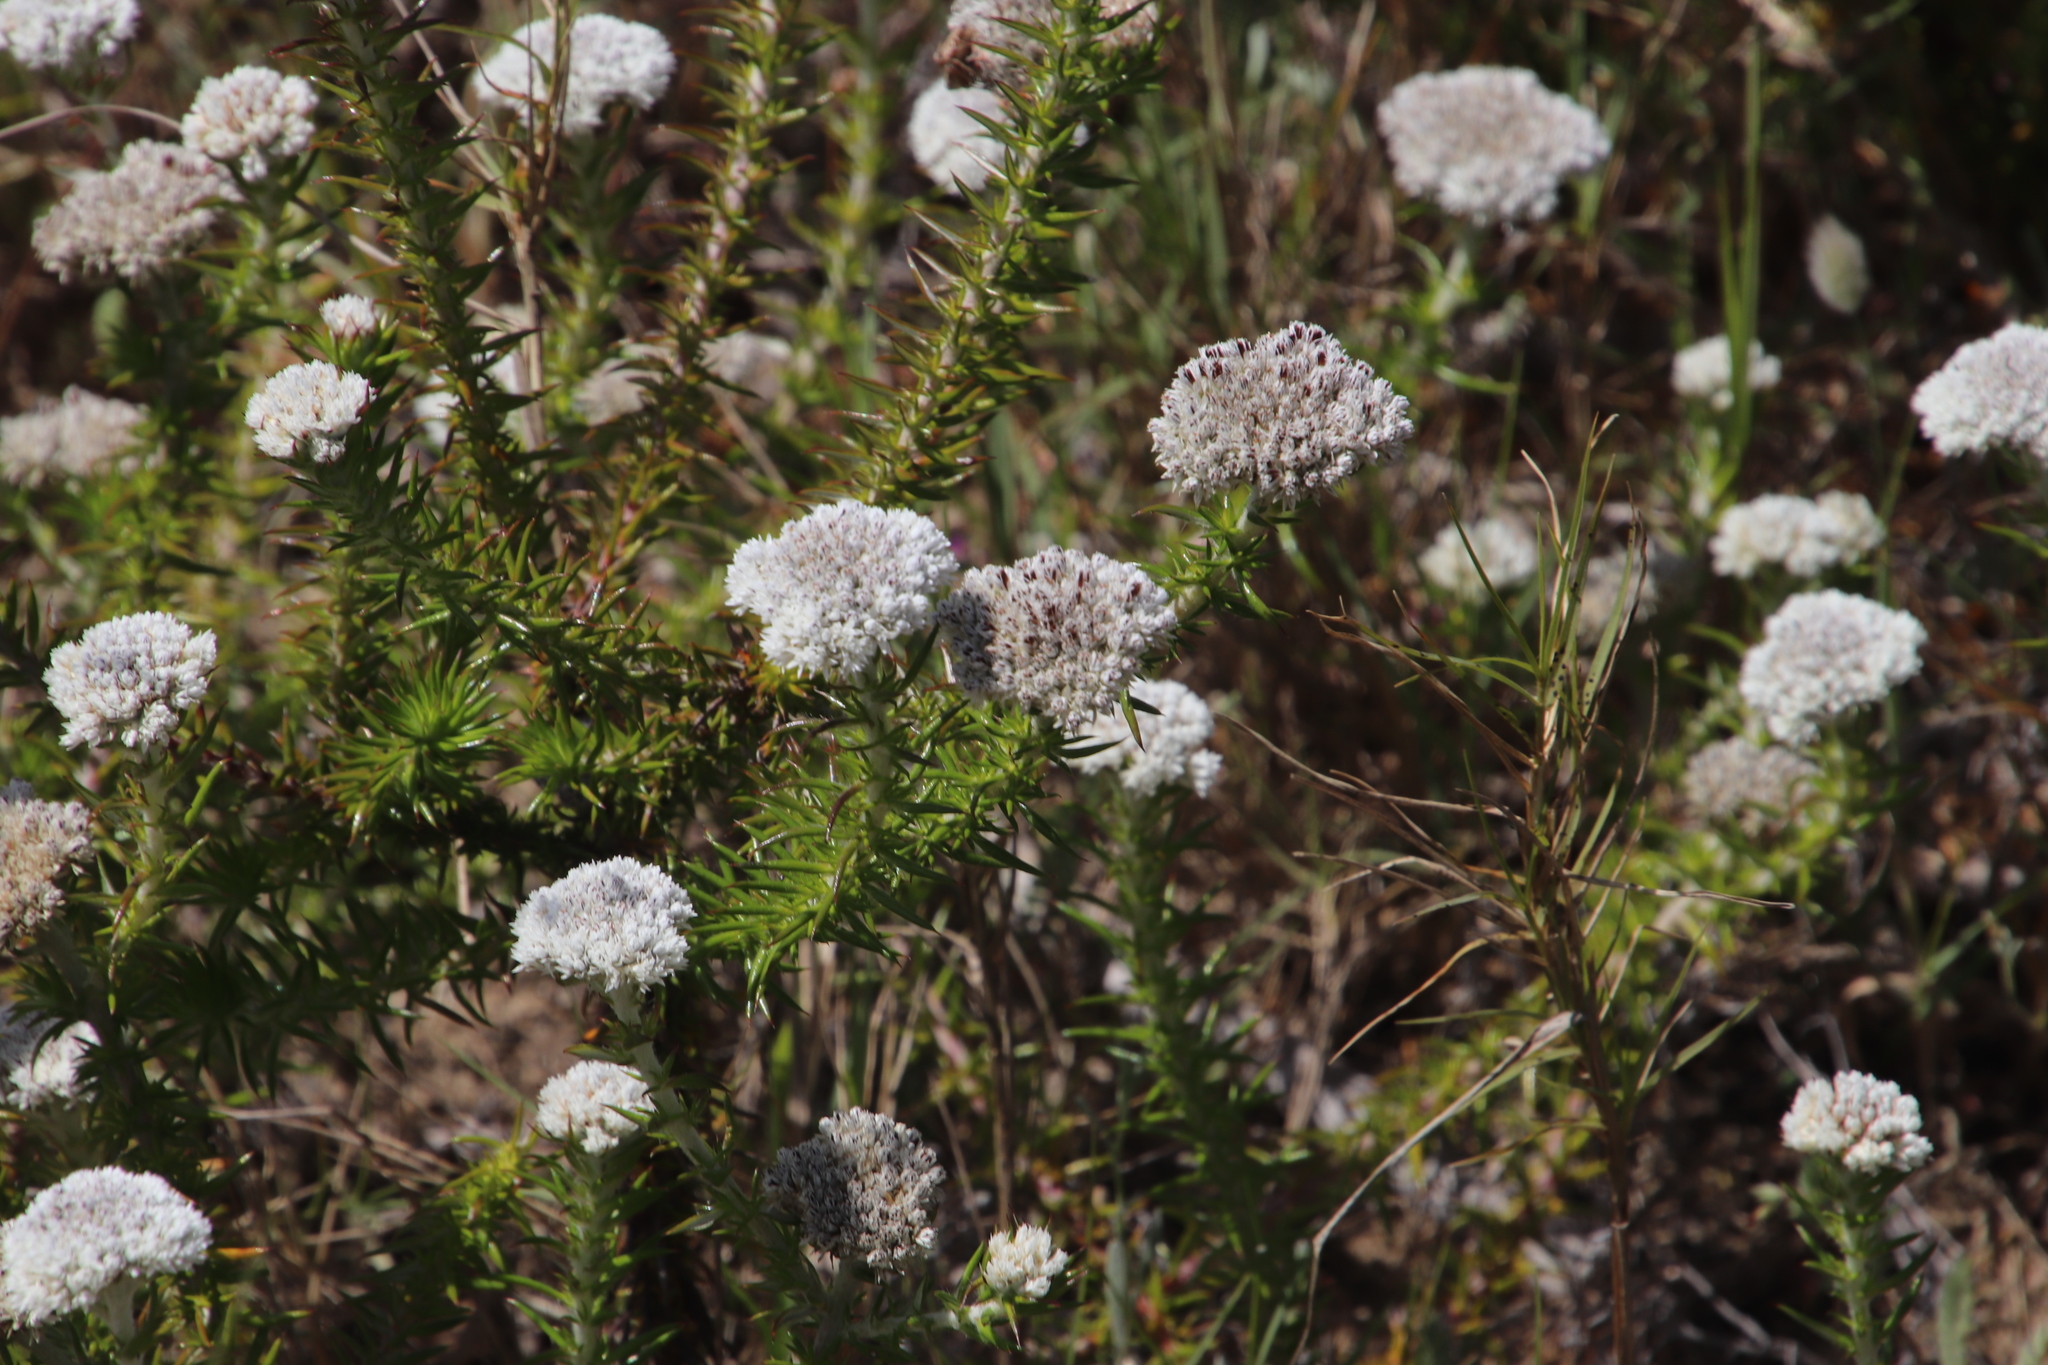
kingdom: Plantae
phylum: Tracheophyta
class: Magnoliopsida
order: Asterales
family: Asteraceae
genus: Metalasia
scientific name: Metalasia pulchella
